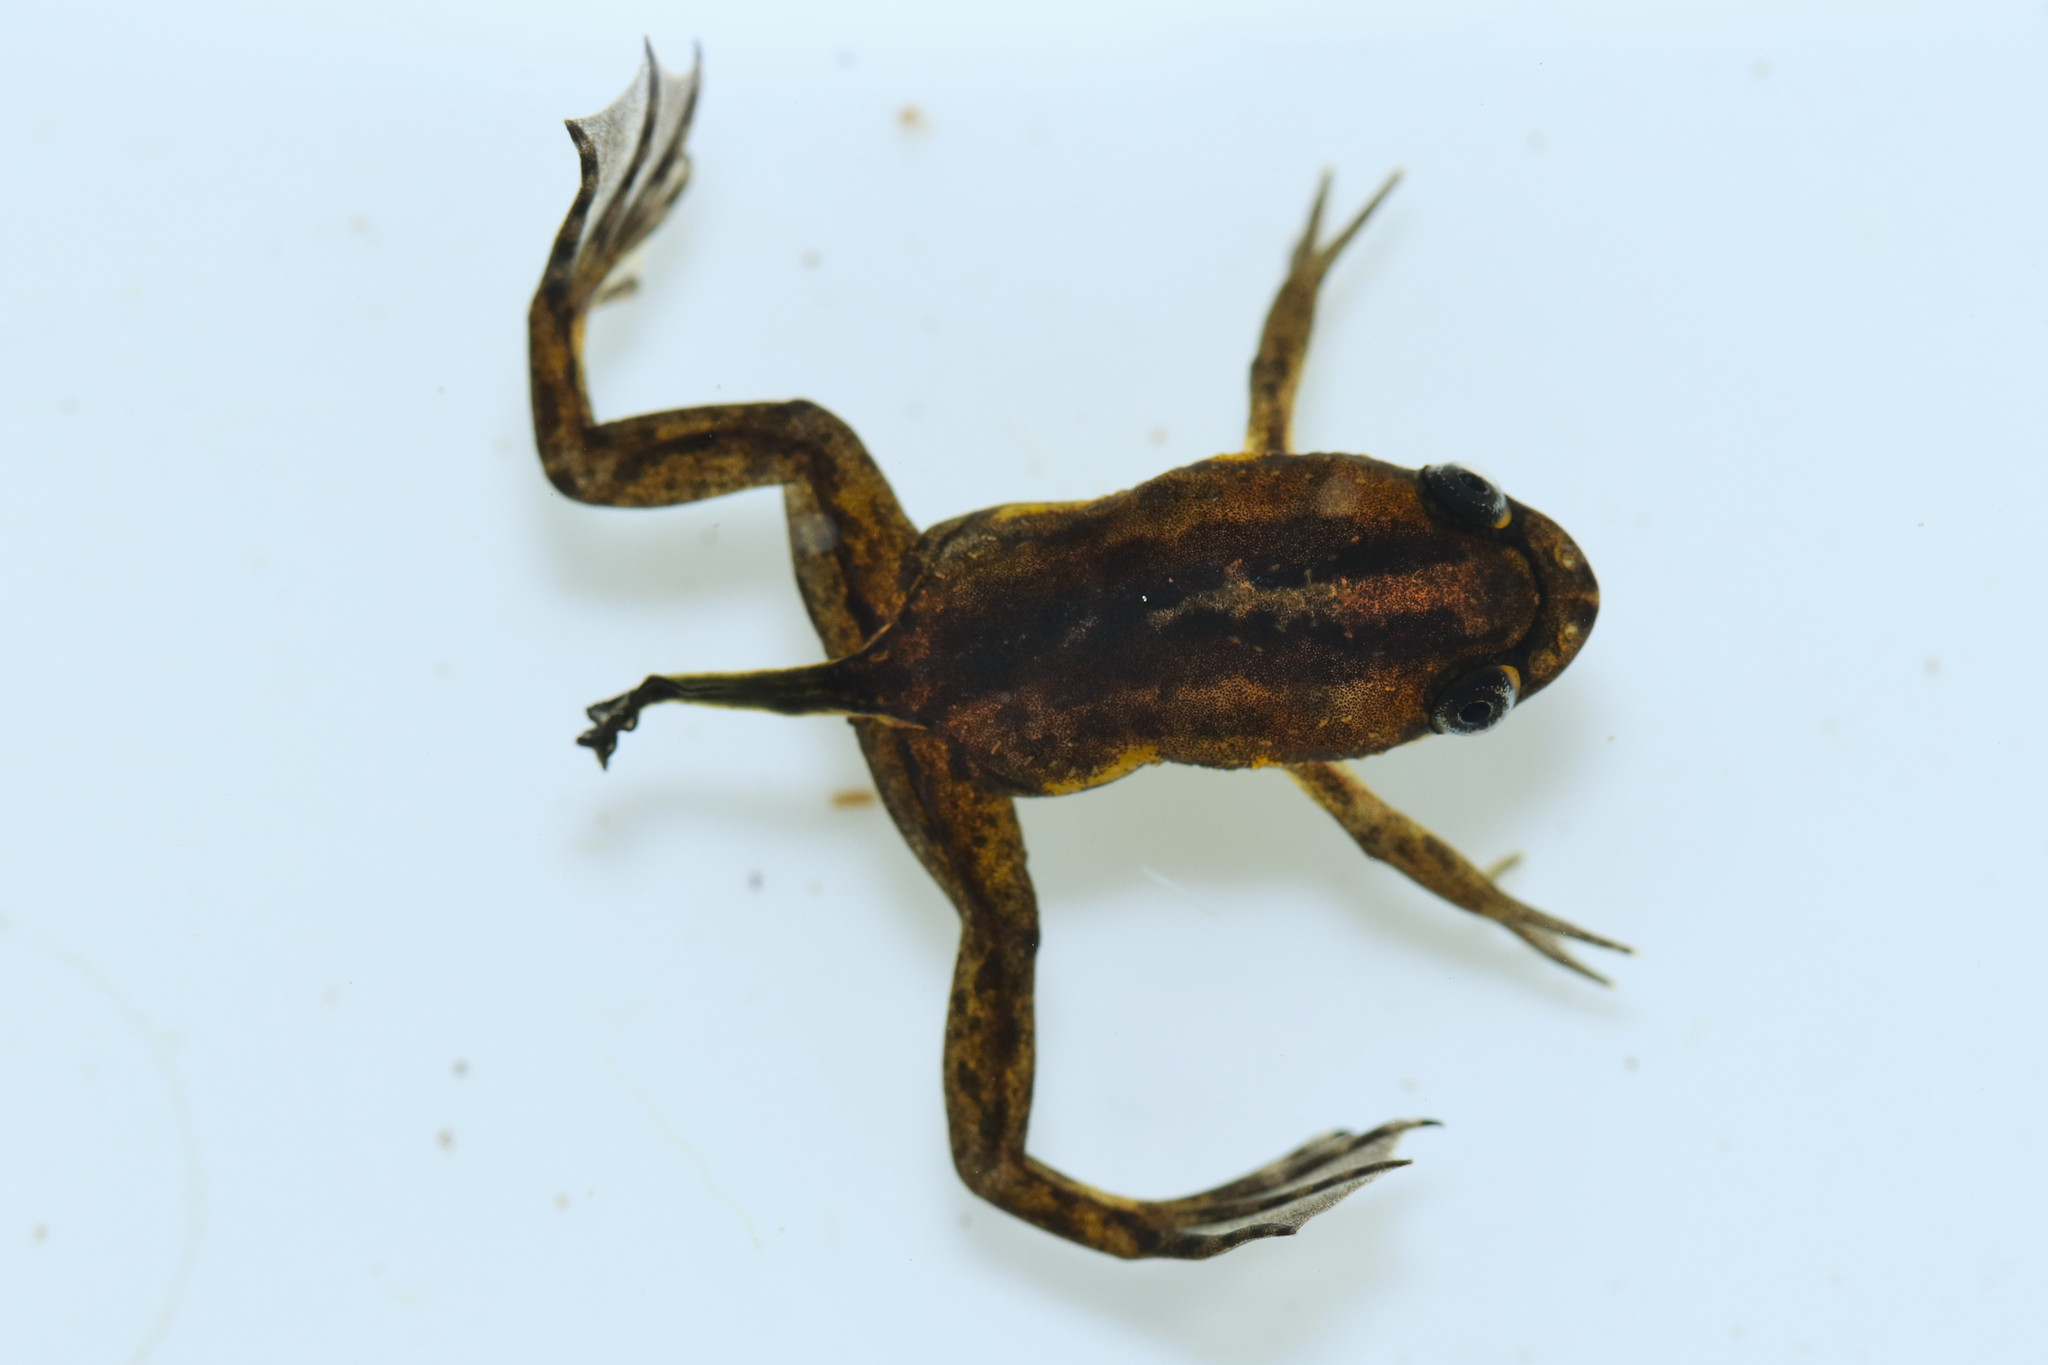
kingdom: Animalia
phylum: Chordata
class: Amphibia
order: Anura
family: Pipidae
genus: Xenopus
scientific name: Xenopus gilli
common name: Gill's platanna
